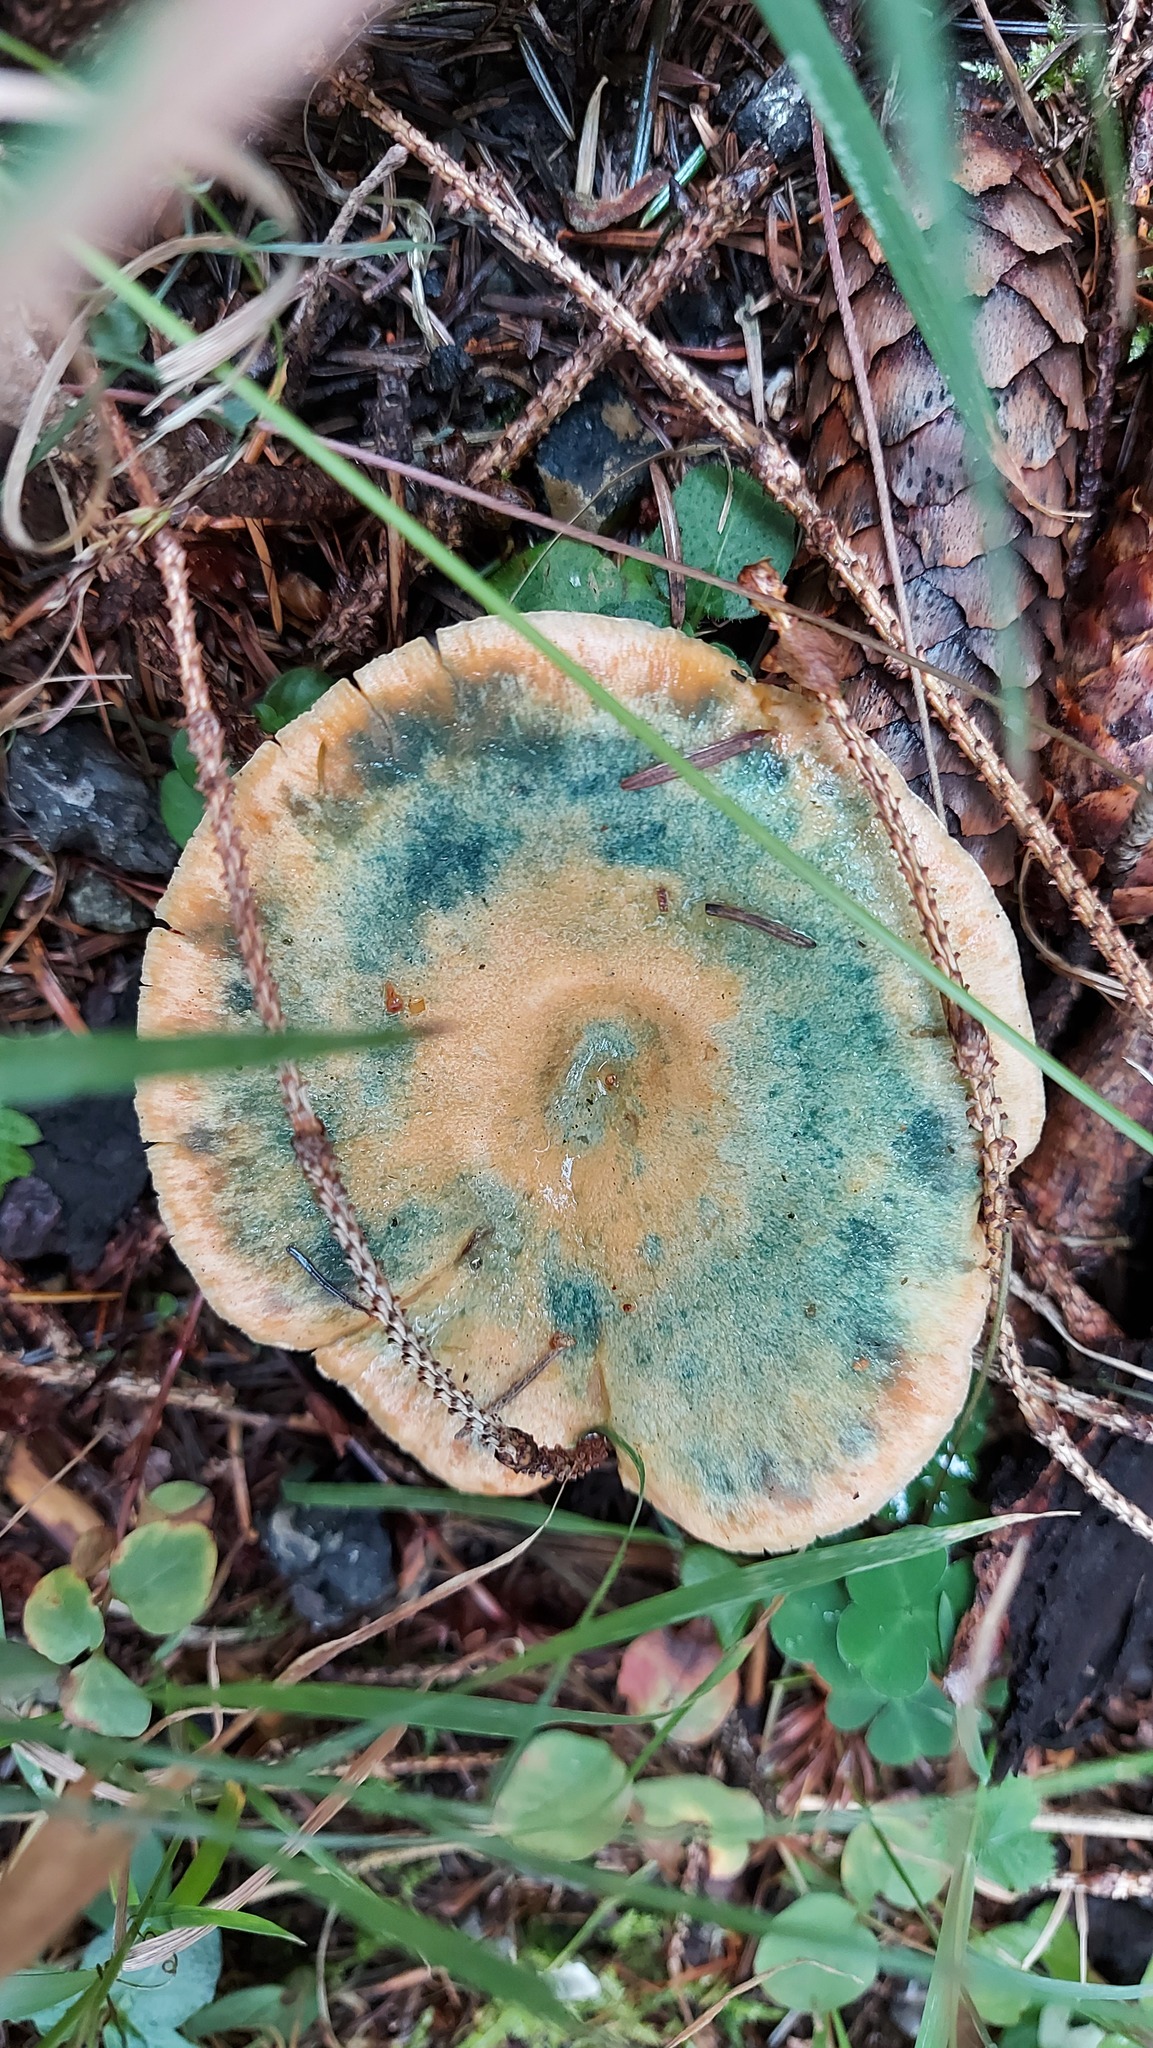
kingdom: Fungi
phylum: Basidiomycota
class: Agaricomycetes
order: Russulales
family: Russulaceae
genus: Lactarius
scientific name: Lactarius deterrimus
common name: False saffron milkcap
